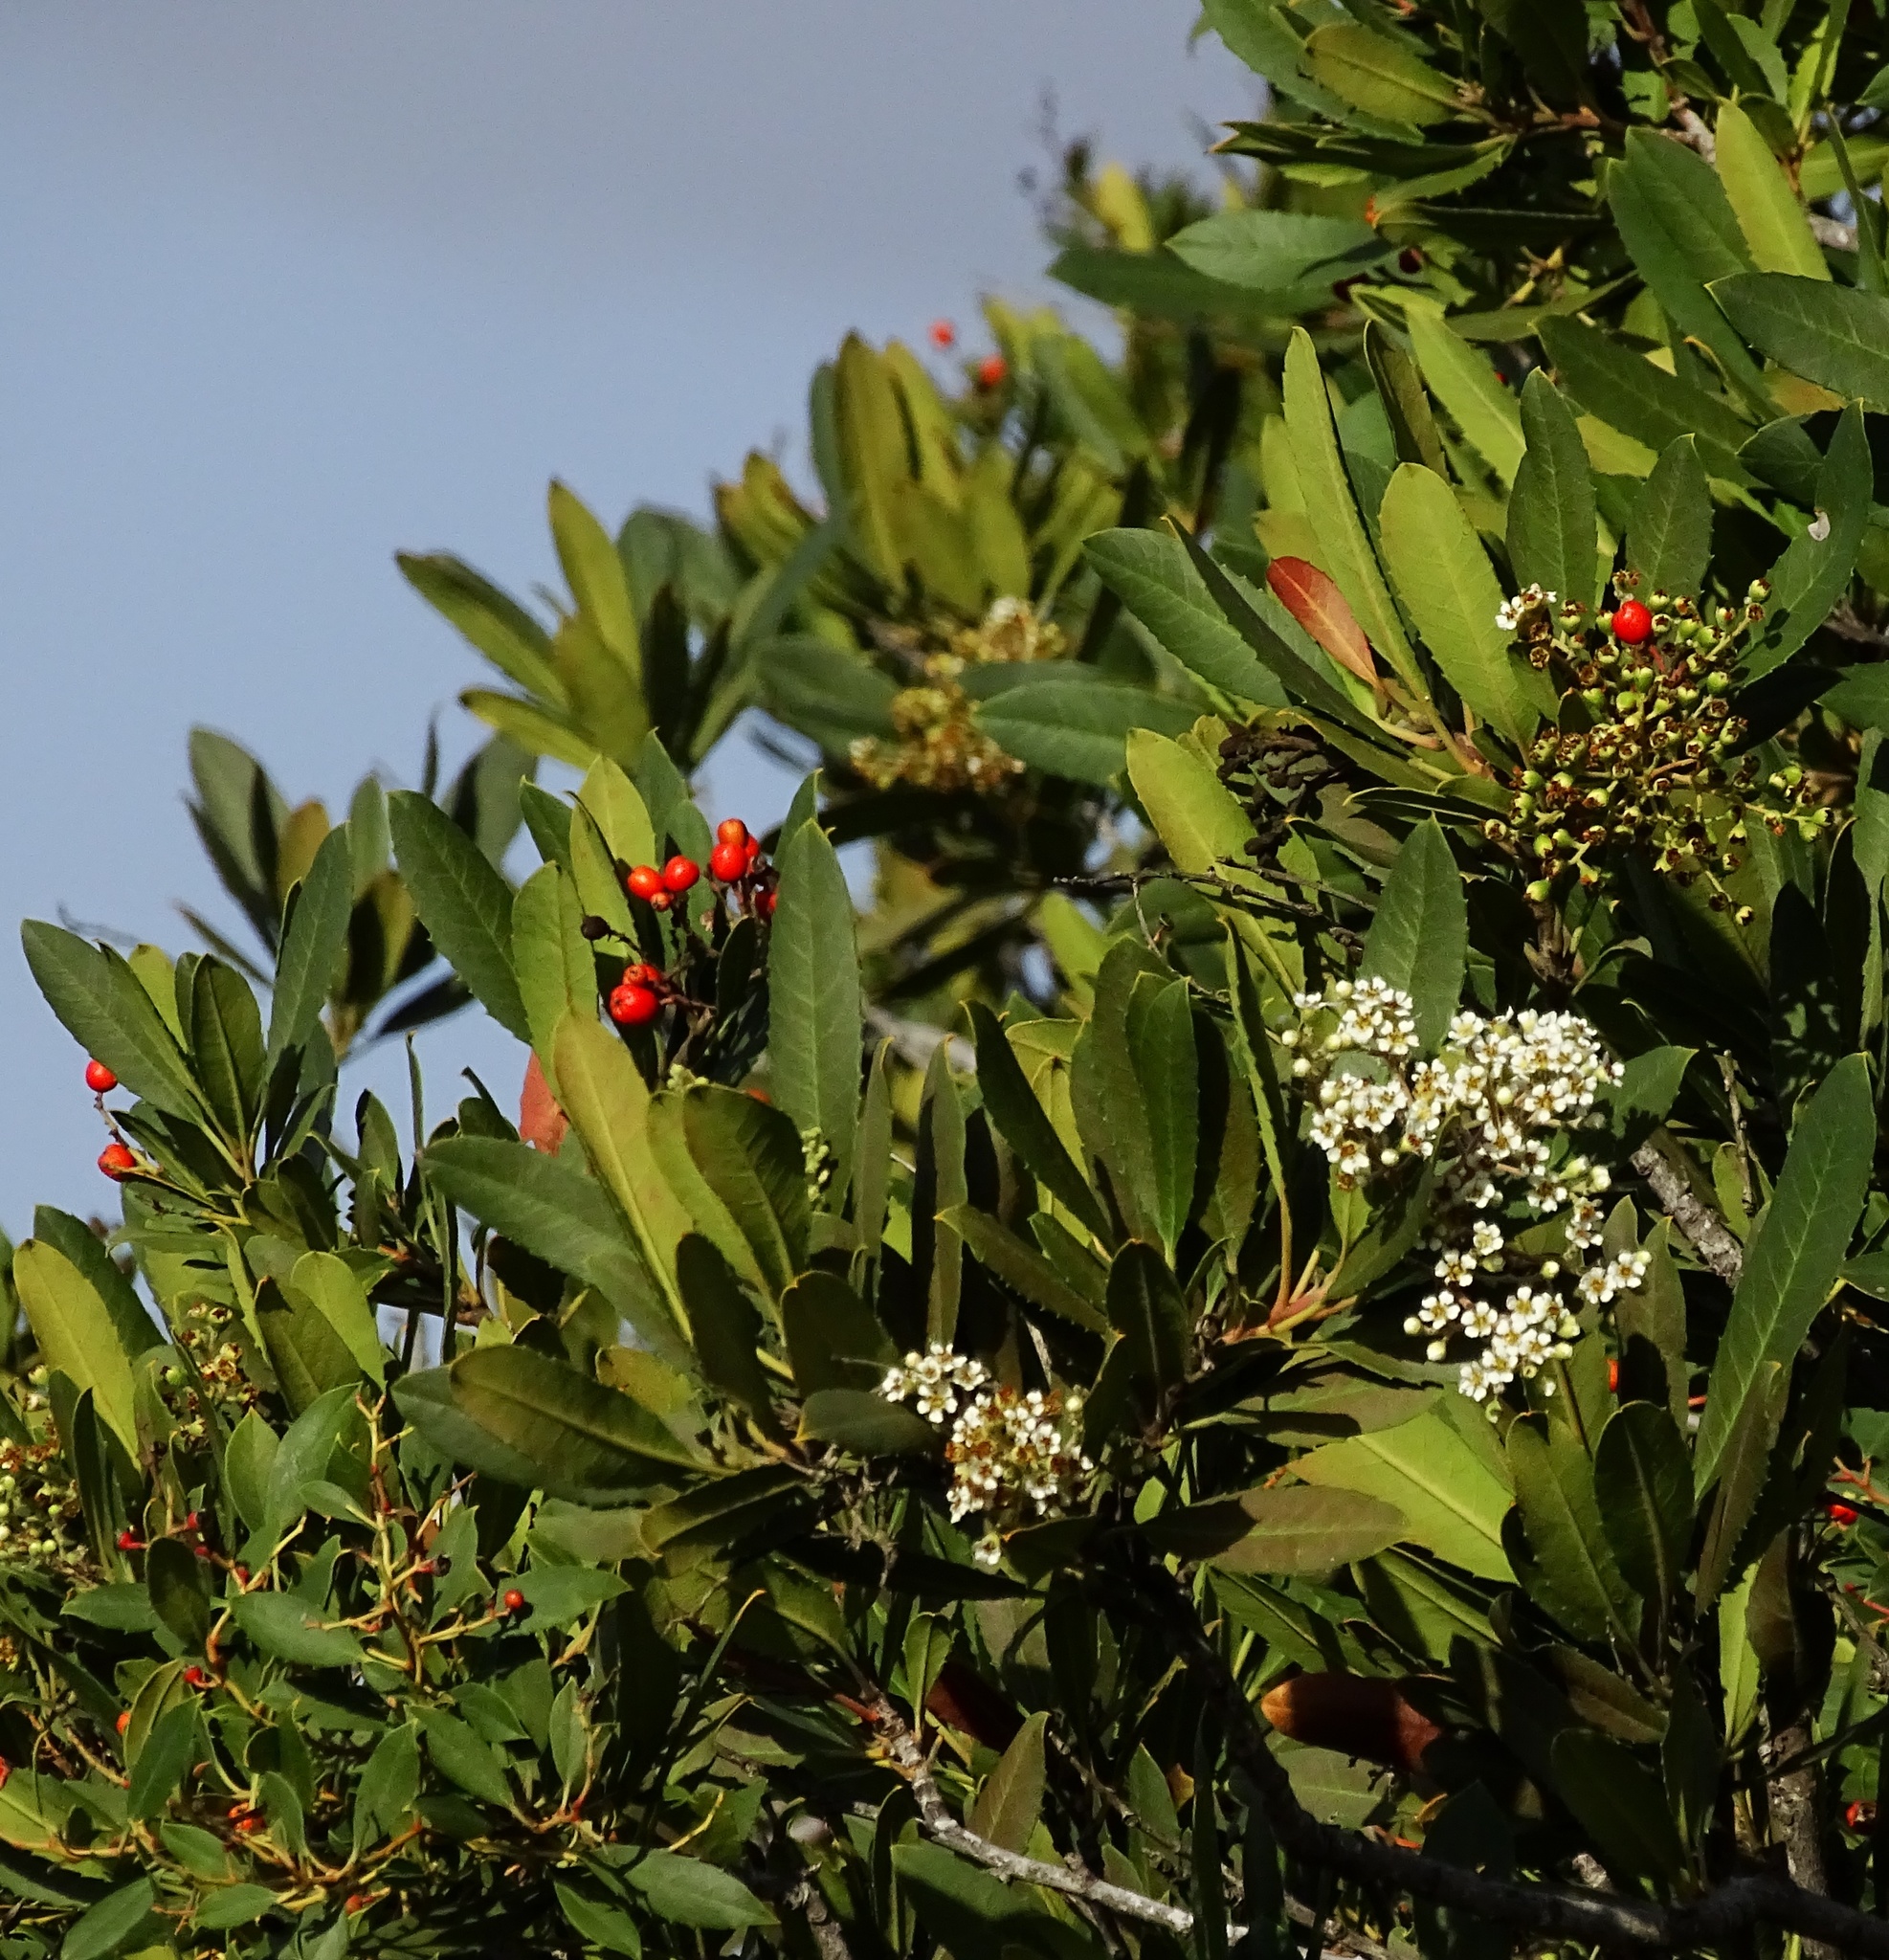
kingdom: Plantae
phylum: Tracheophyta
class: Magnoliopsida
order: Rosales
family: Rosaceae
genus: Heteromeles
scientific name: Heteromeles arbutifolia
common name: California-holly
